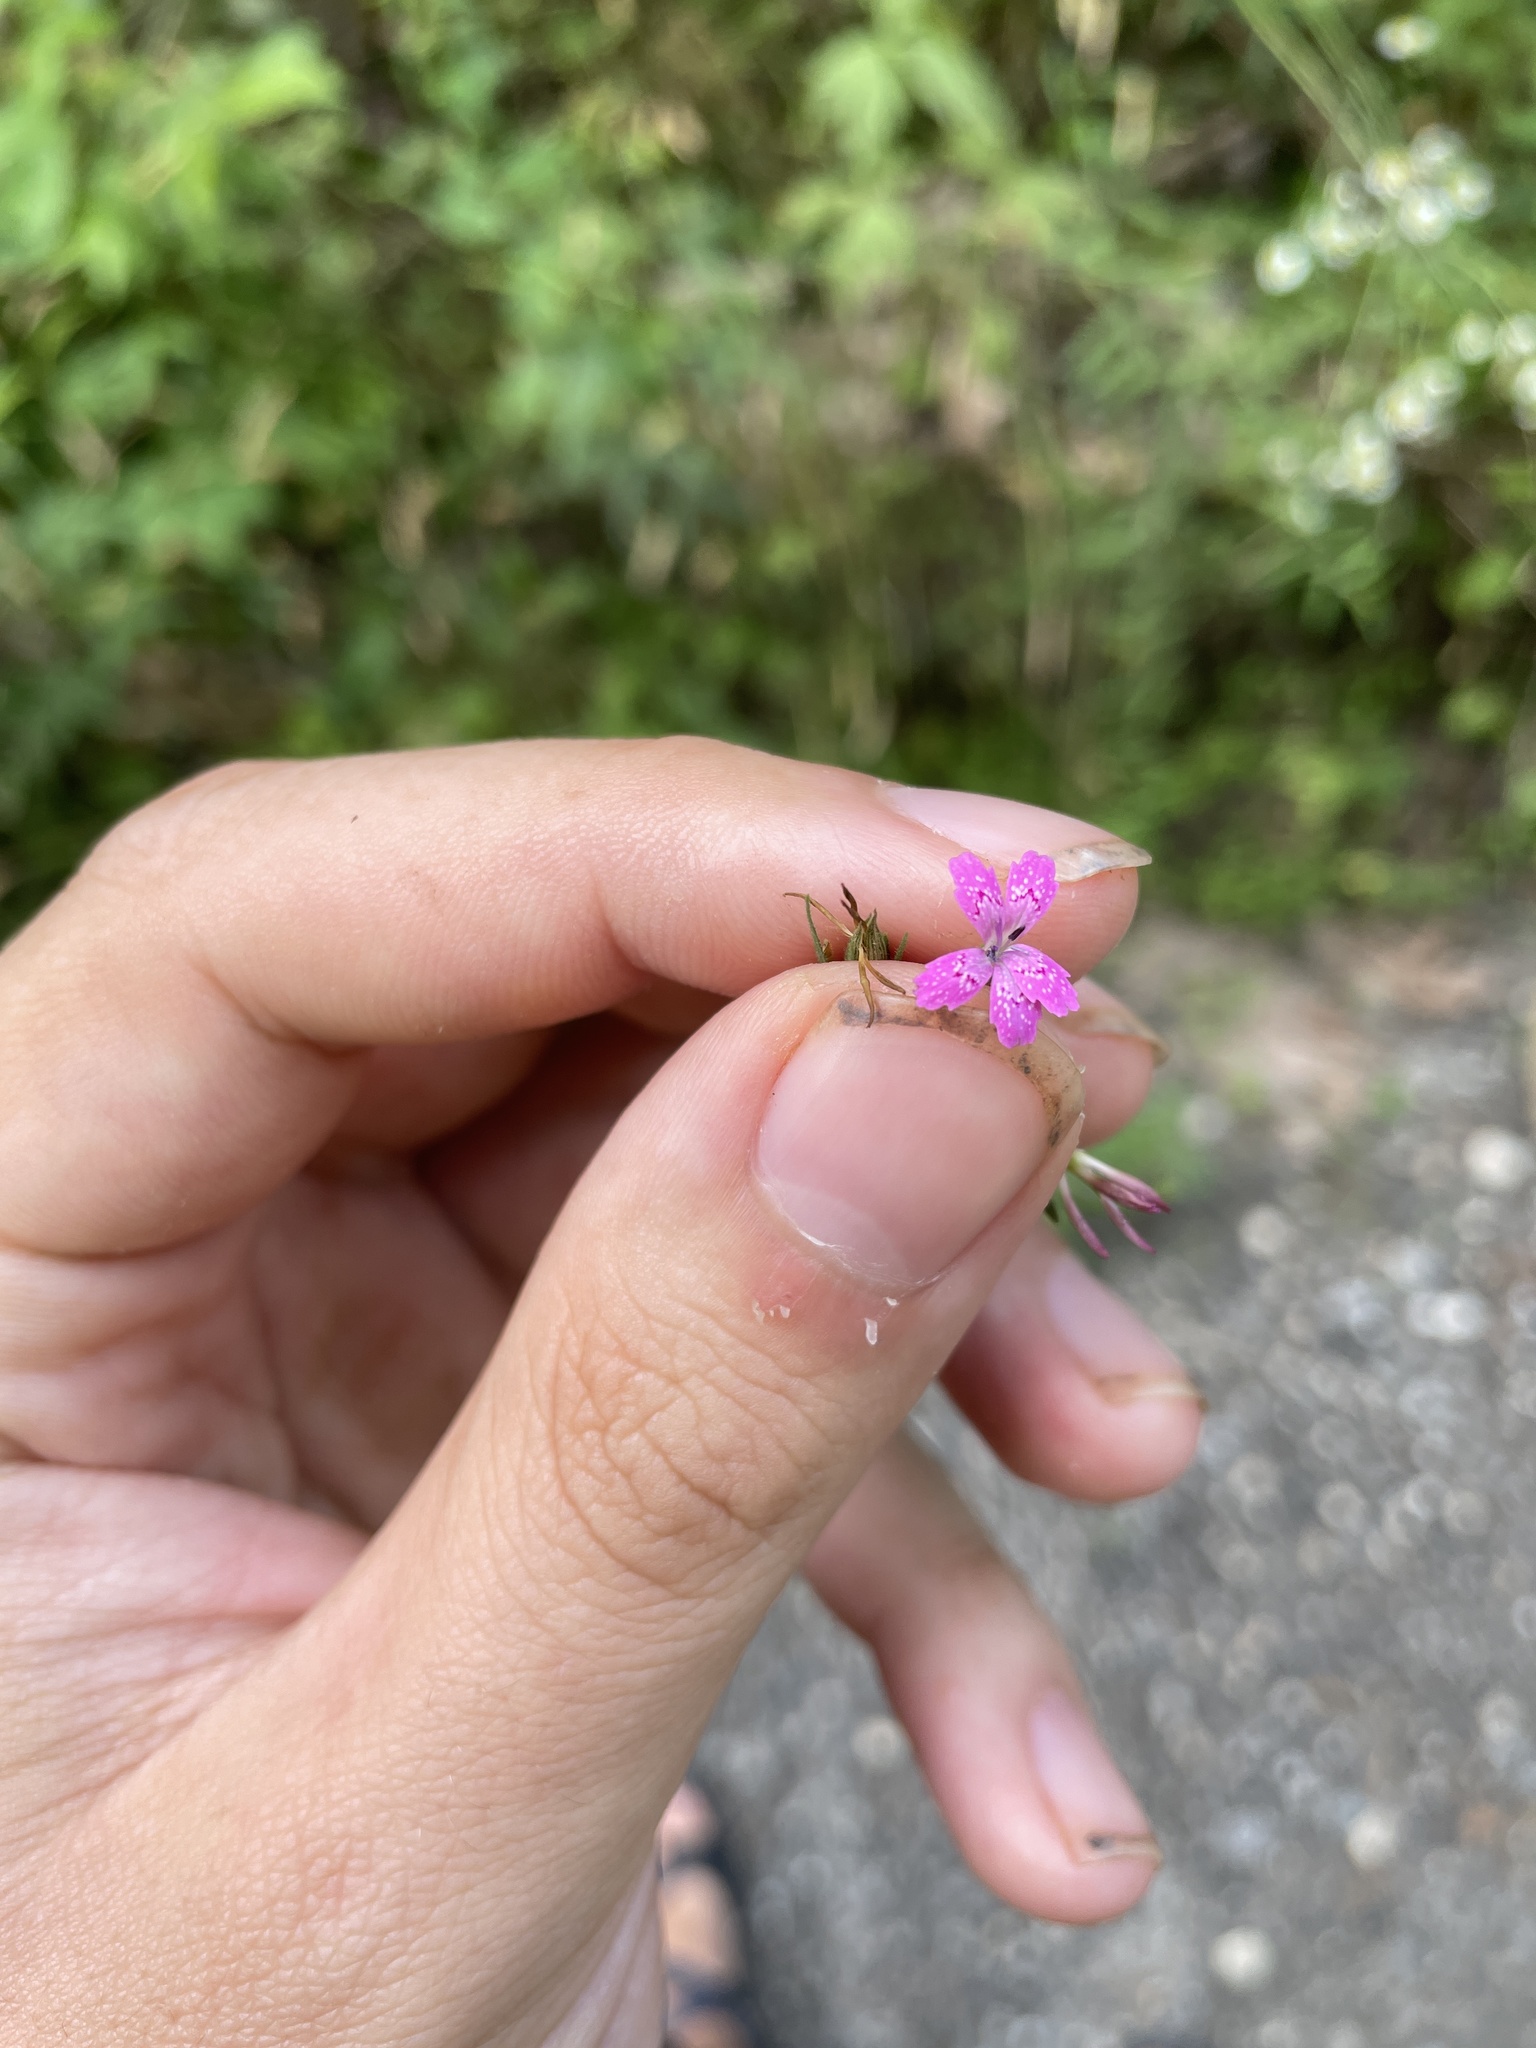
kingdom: Plantae
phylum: Tracheophyta
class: Magnoliopsida
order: Caryophyllales
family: Caryophyllaceae
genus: Dianthus
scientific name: Dianthus armeria
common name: Deptford pink
